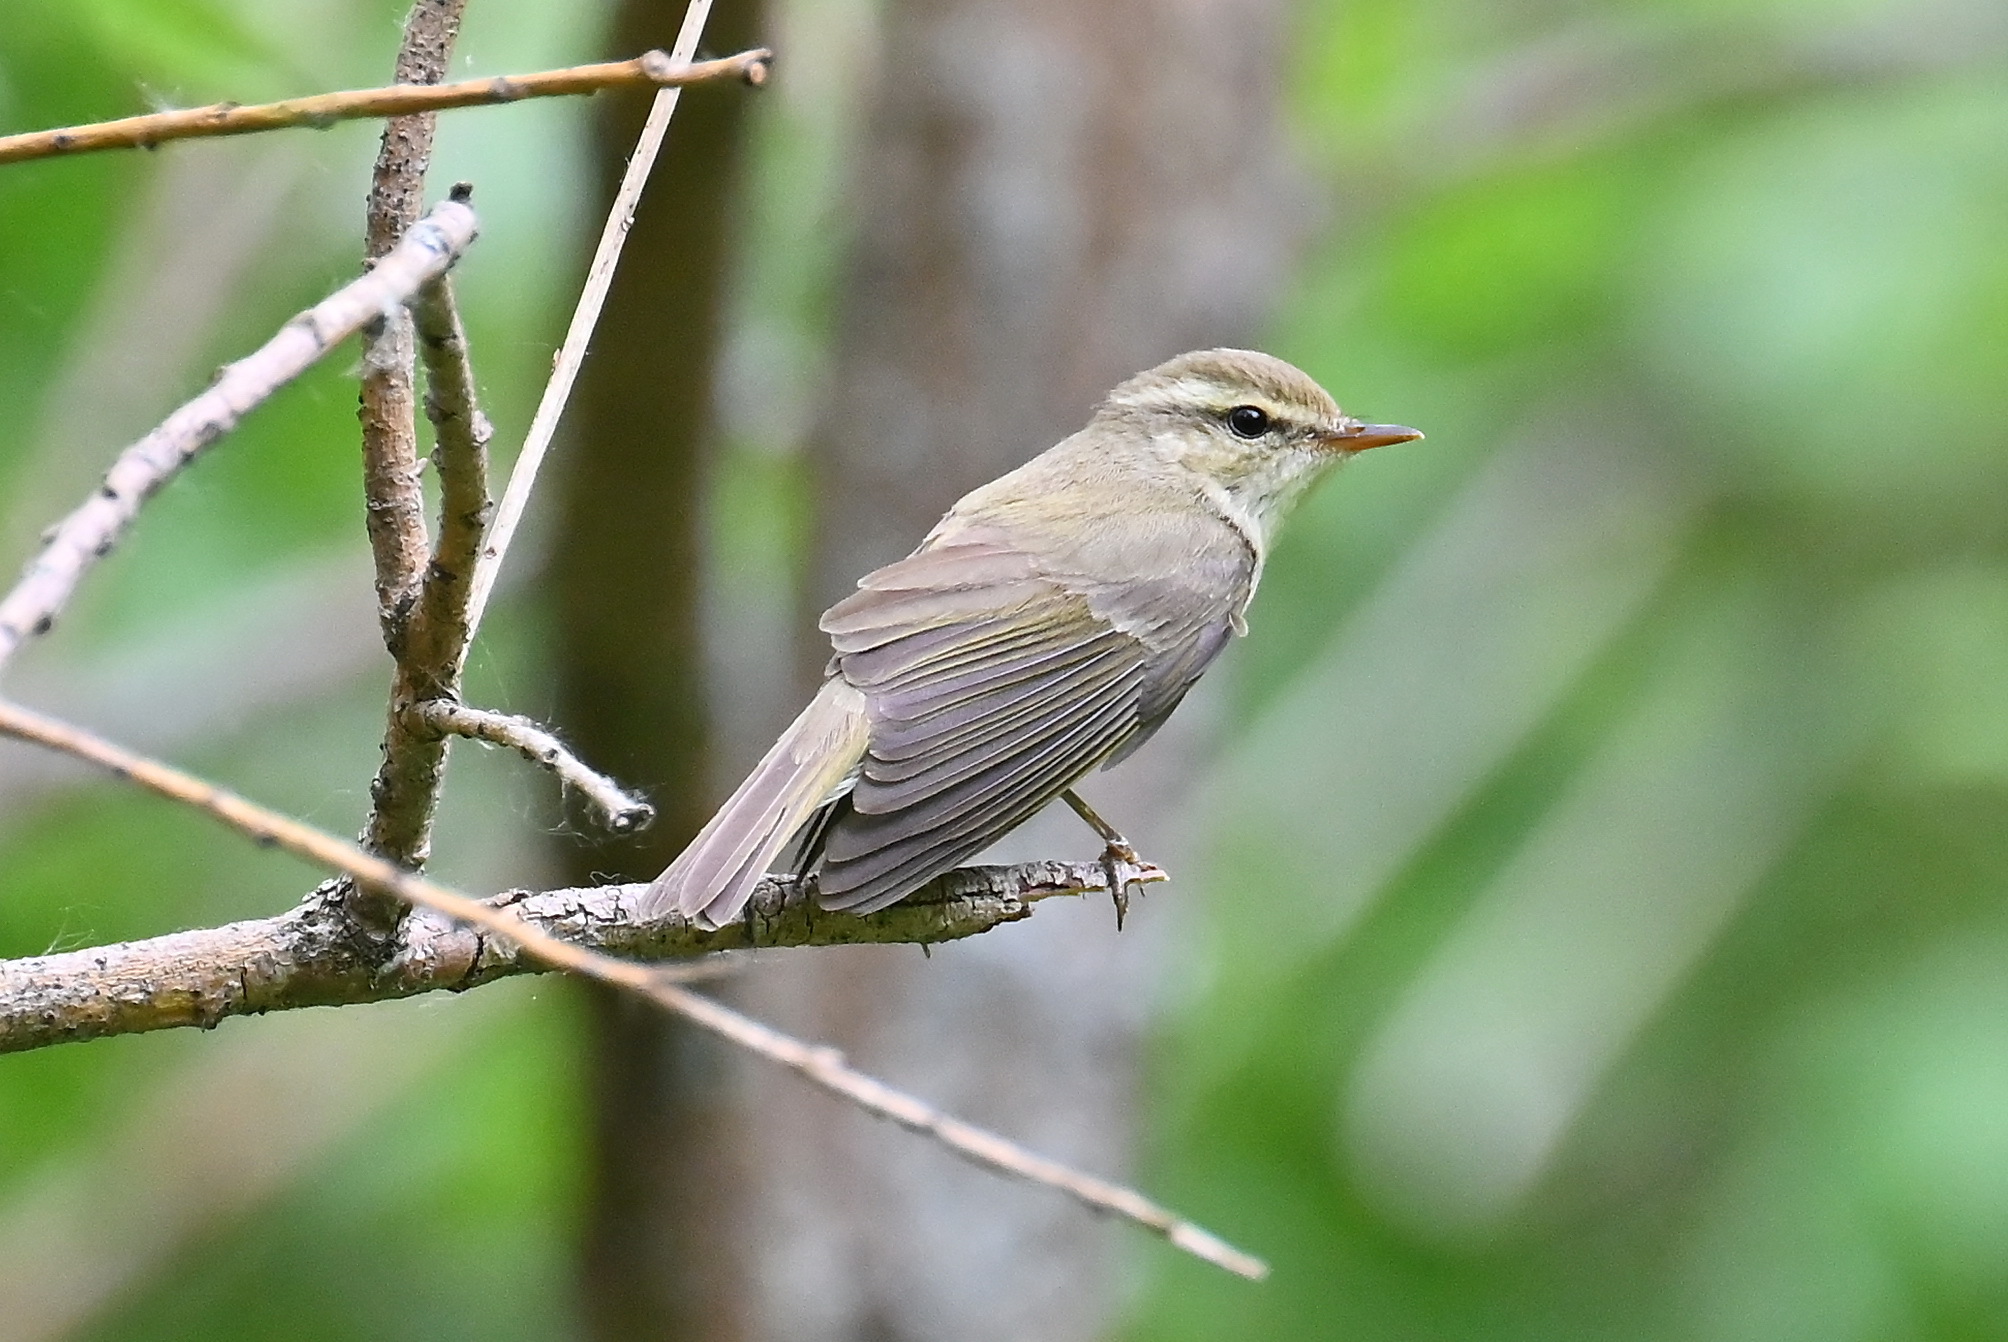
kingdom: Animalia
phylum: Chordata
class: Aves
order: Passeriformes
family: Phylloscopidae
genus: Phylloscopus
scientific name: Phylloscopus trochiloides
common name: Greenish warbler
